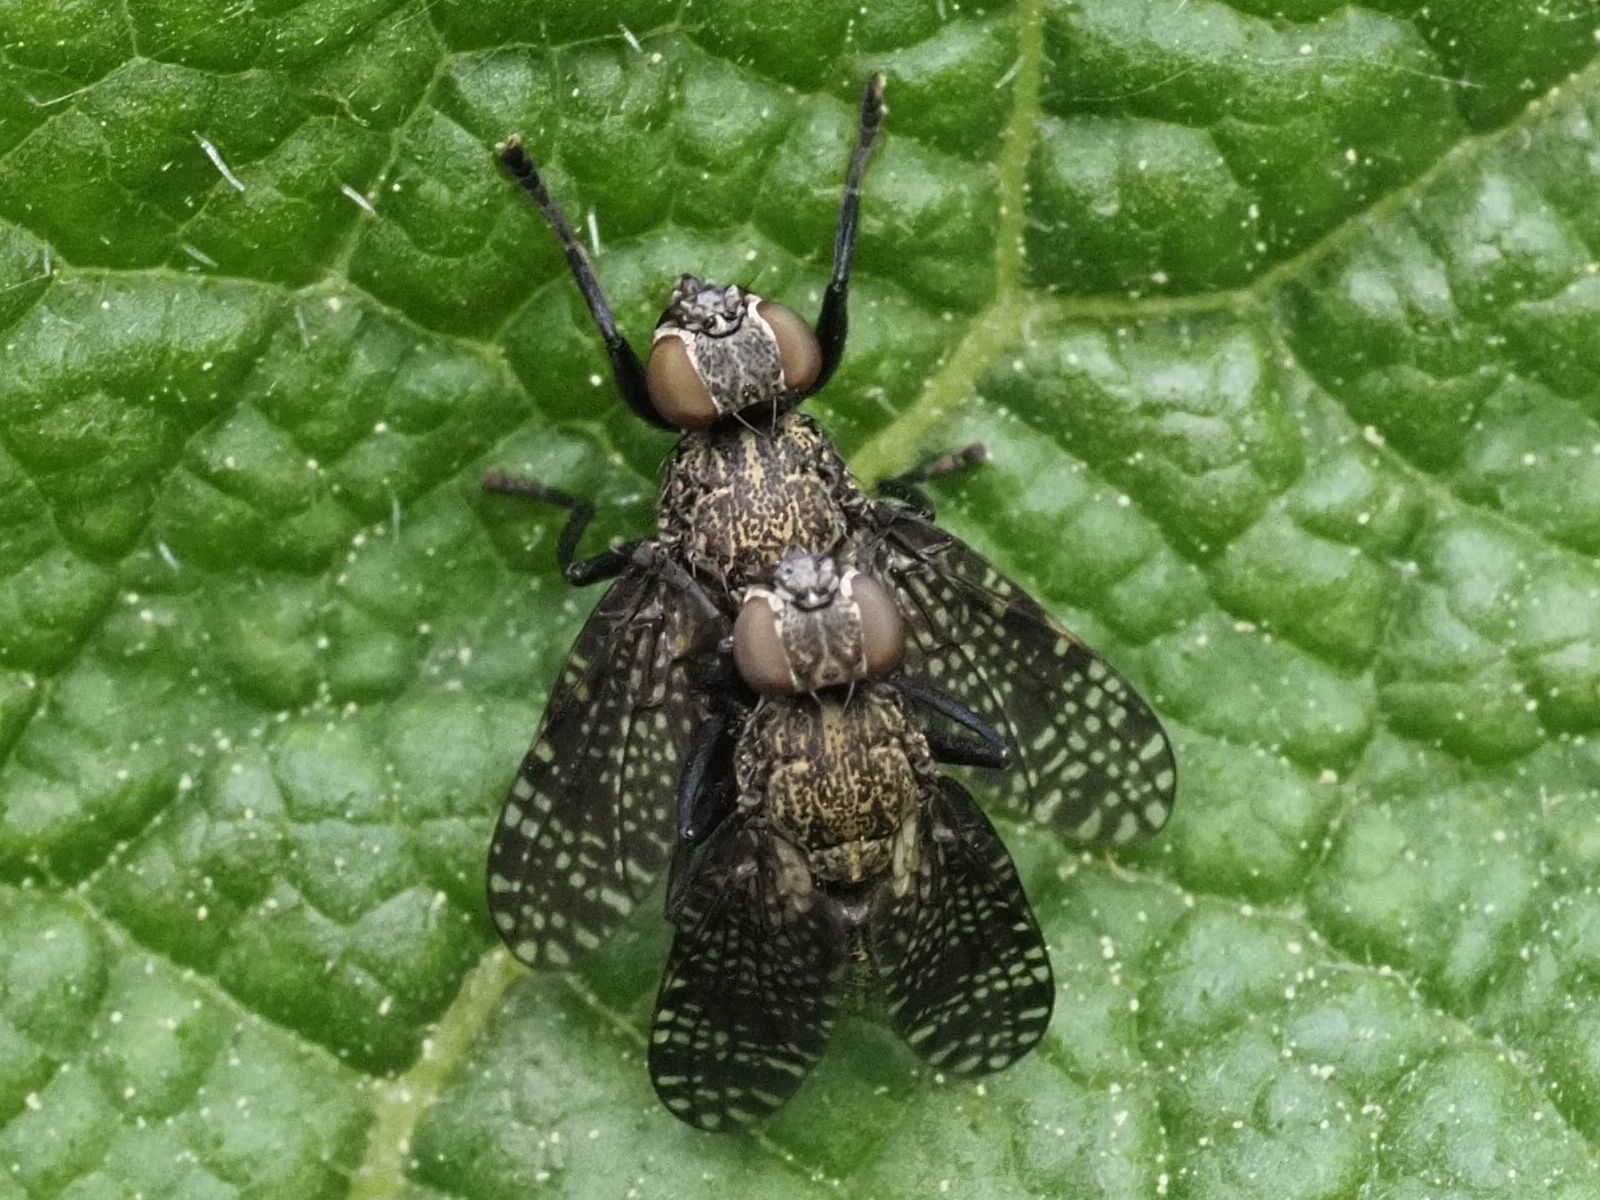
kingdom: Animalia
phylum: Arthropoda
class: Insecta
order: Diptera
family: Platystomatidae
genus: Platystoma
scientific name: Platystoma seminationis
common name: Fly
